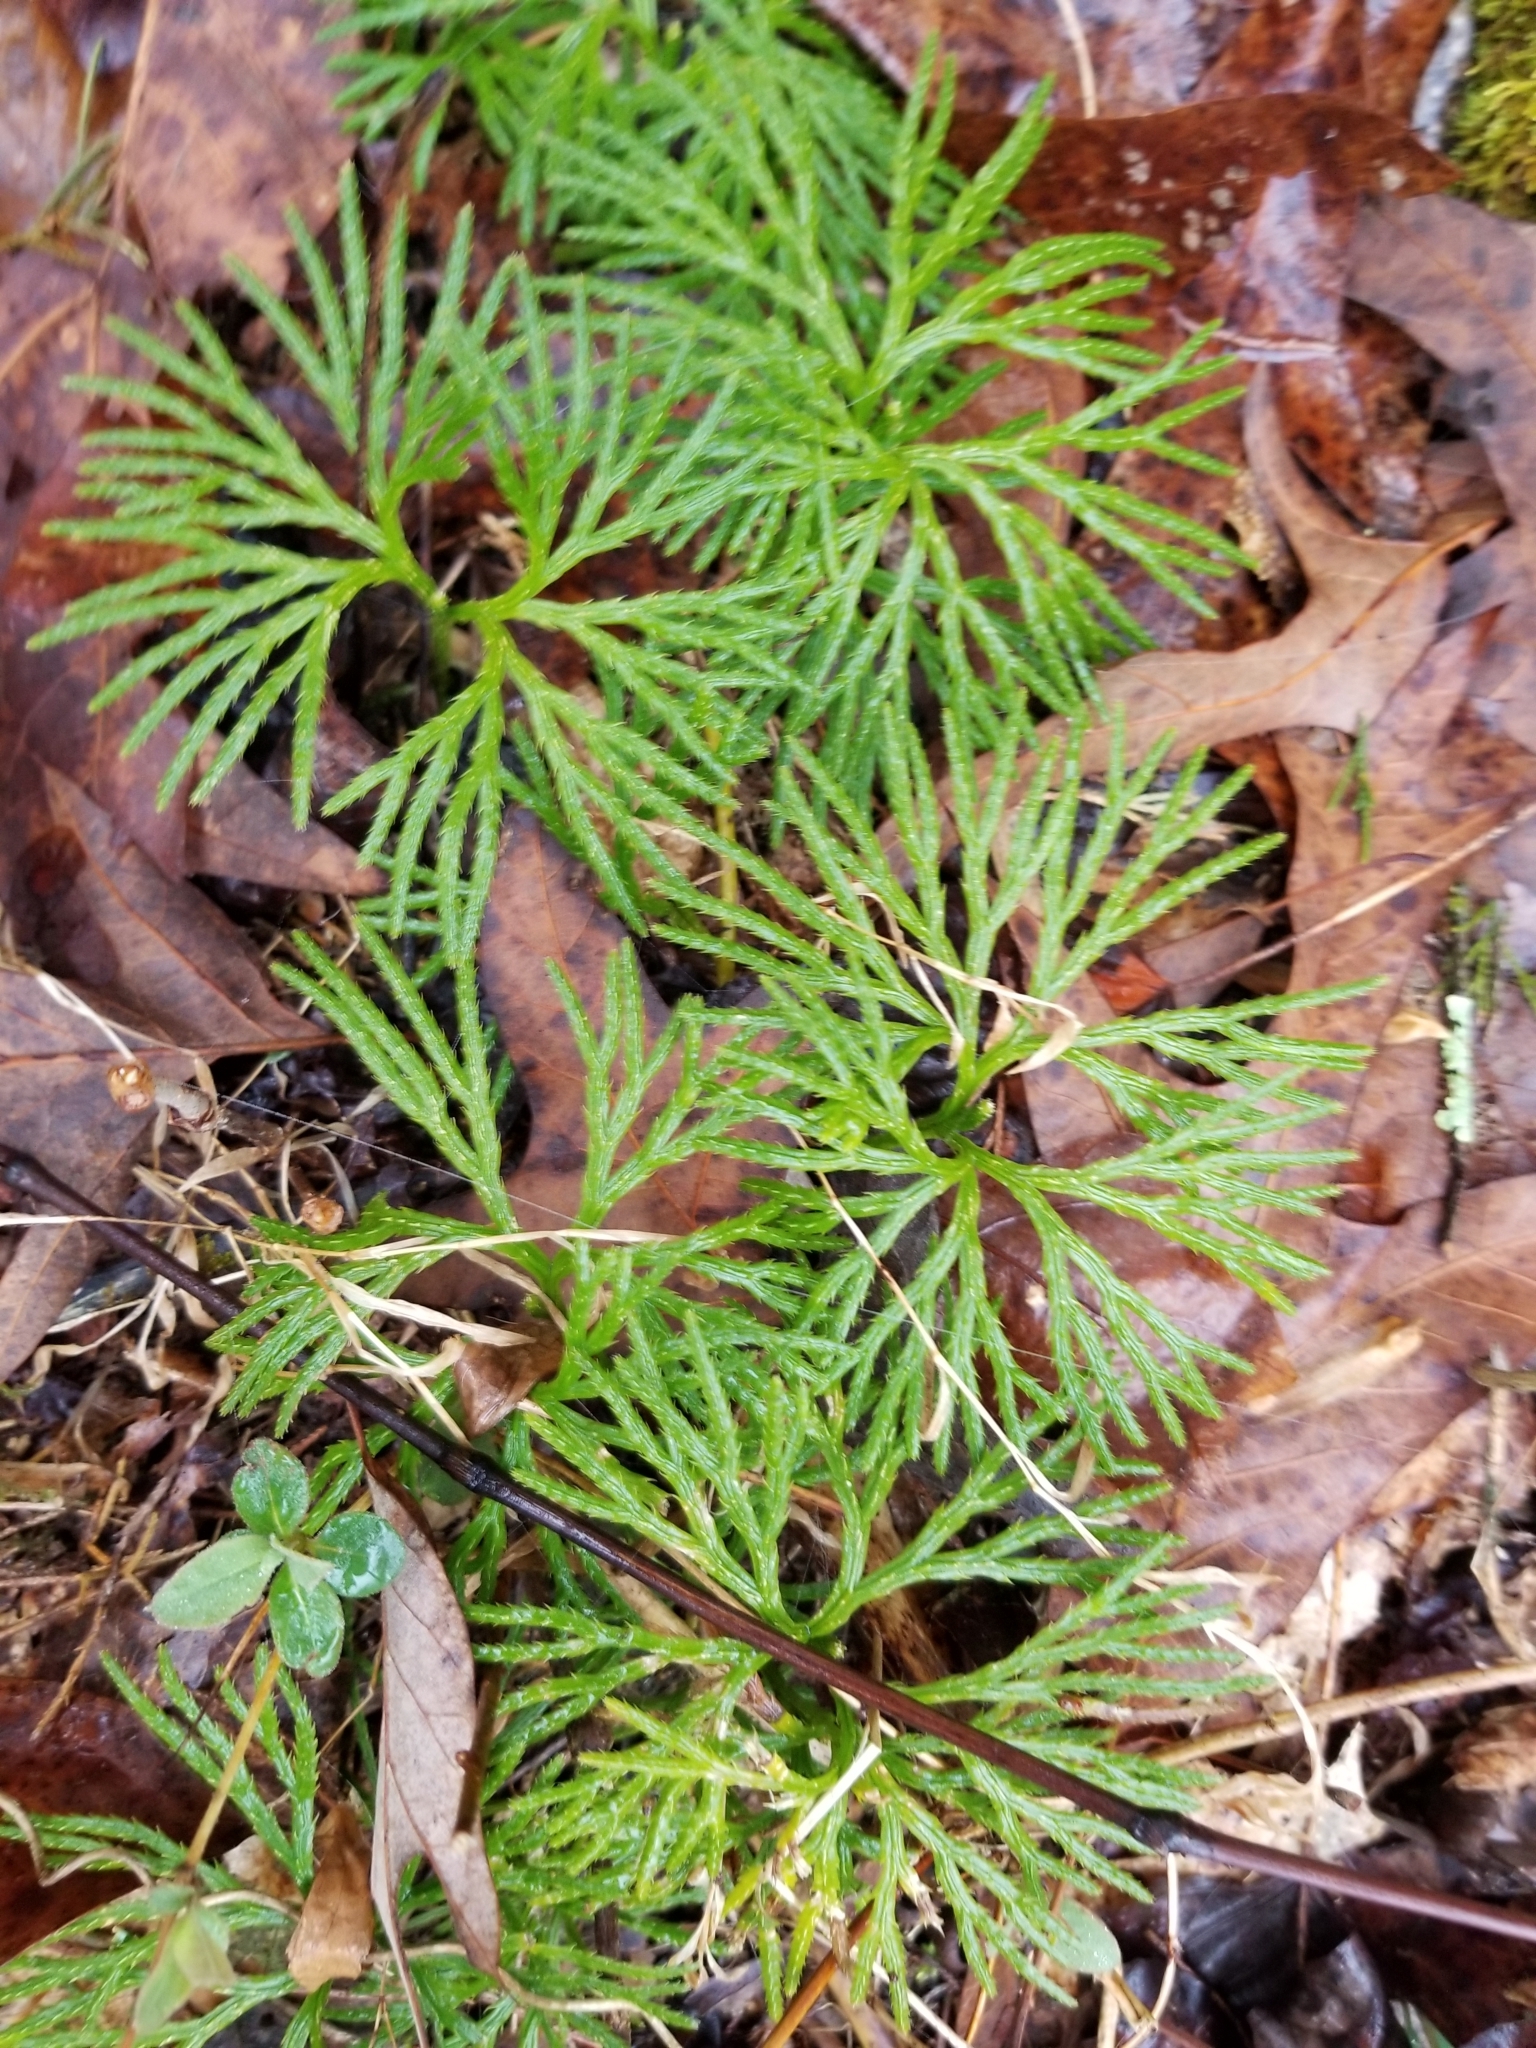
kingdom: Plantae
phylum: Tracheophyta
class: Lycopodiopsida
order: Lycopodiales
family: Lycopodiaceae
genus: Diphasiastrum
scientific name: Diphasiastrum digitatum
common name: Southern running-pine
